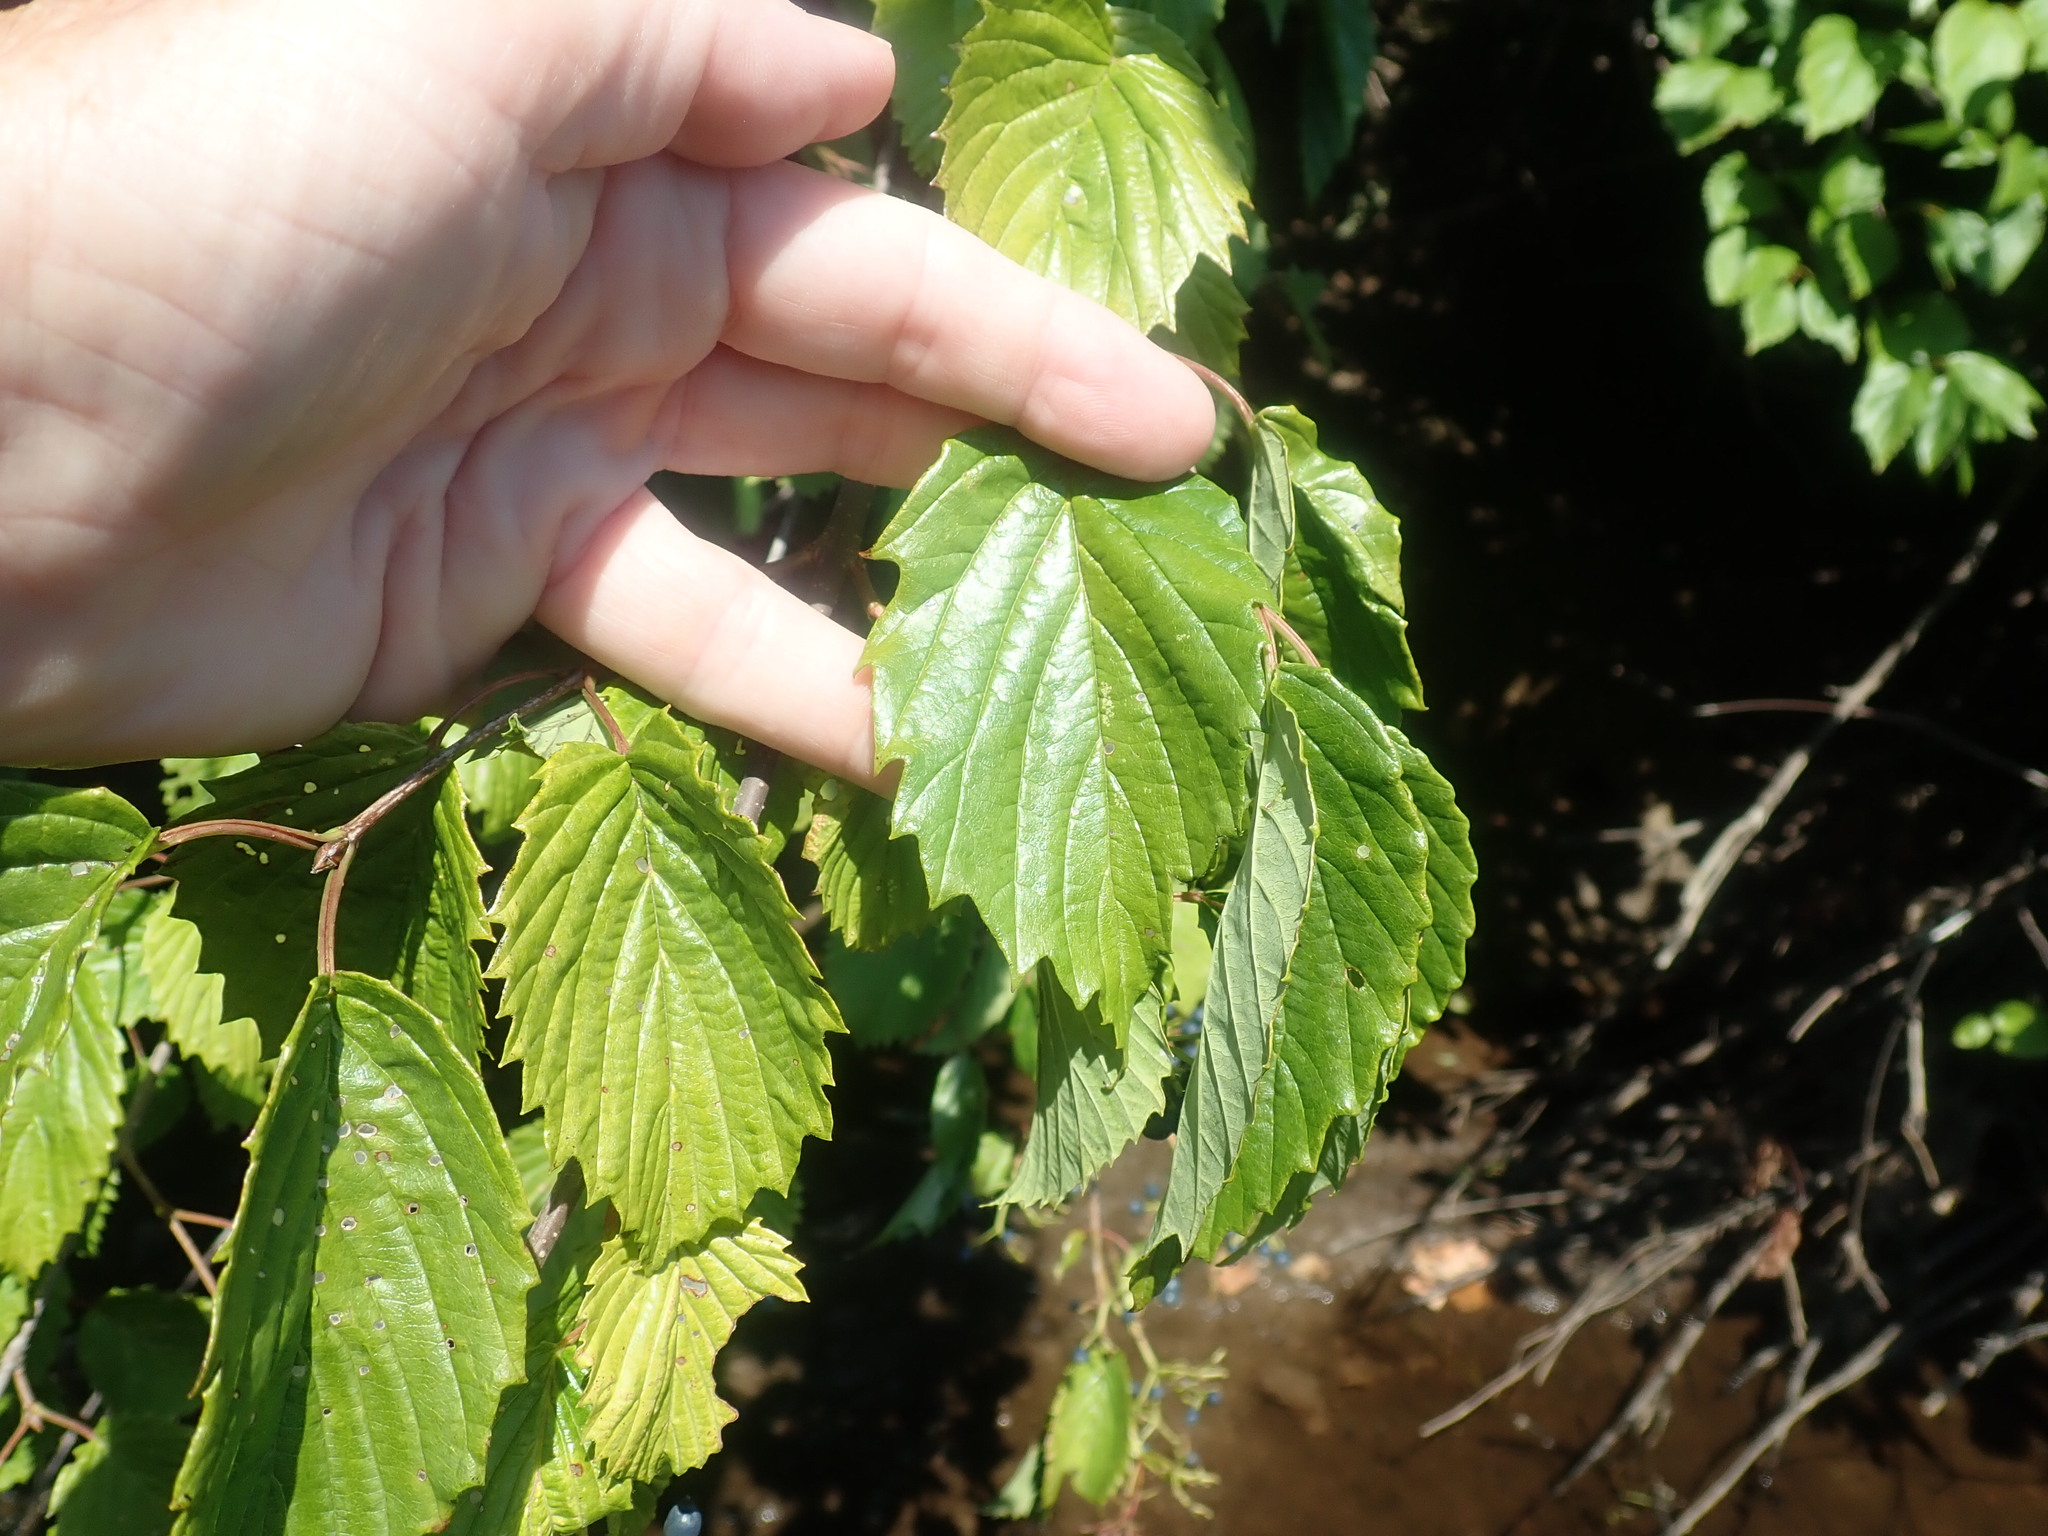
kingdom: Plantae
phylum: Tracheophyta
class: Magnoliopsida
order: Dipsacales
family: Viburnaceae
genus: Viburnum
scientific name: Viburnum recognitum
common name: Northern arrow-wood
